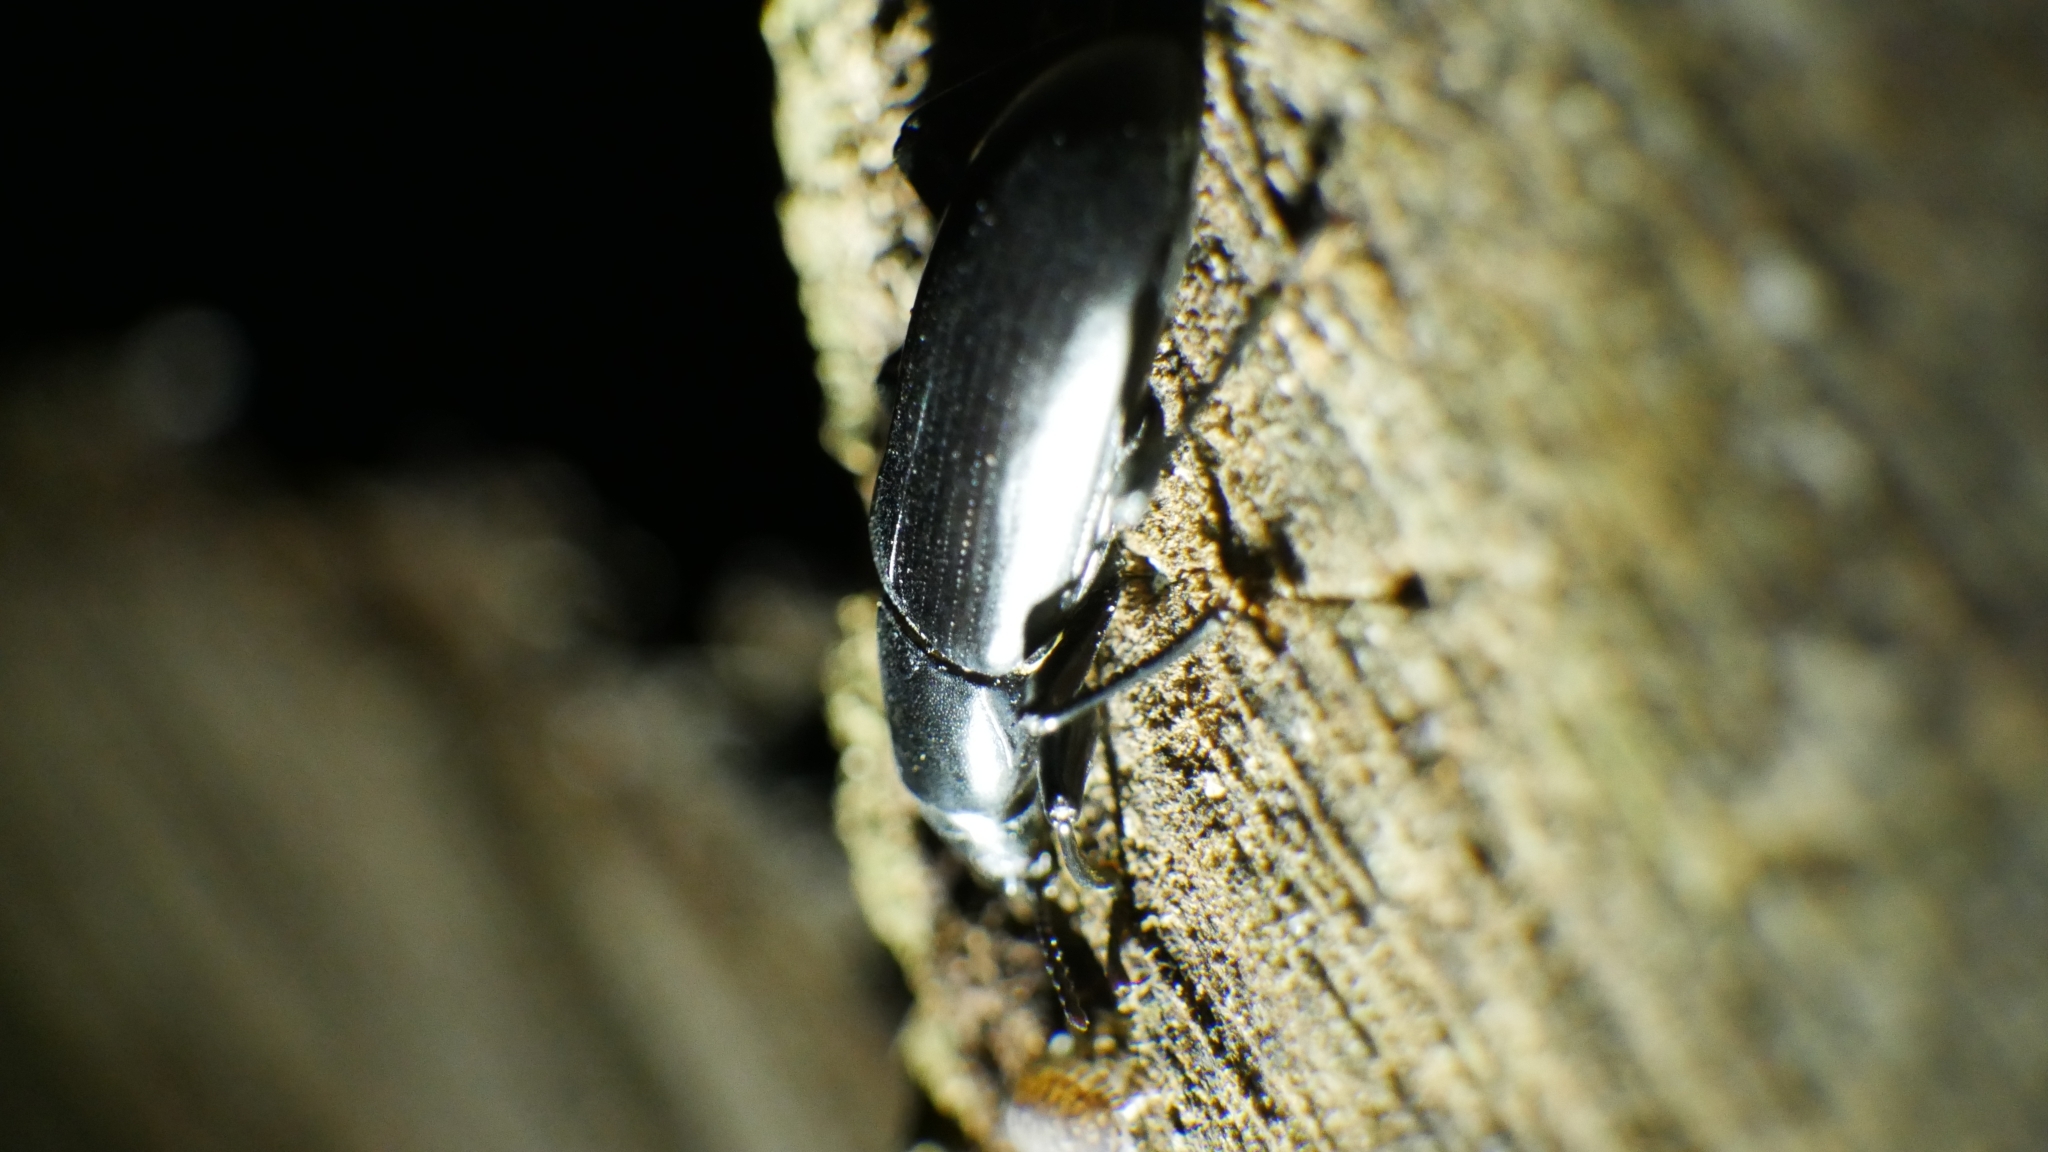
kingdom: Animalia
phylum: Arthropoda
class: Insecta
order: Coleoptera
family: Tenebrionidae
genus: Alobates
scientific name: Alobates
